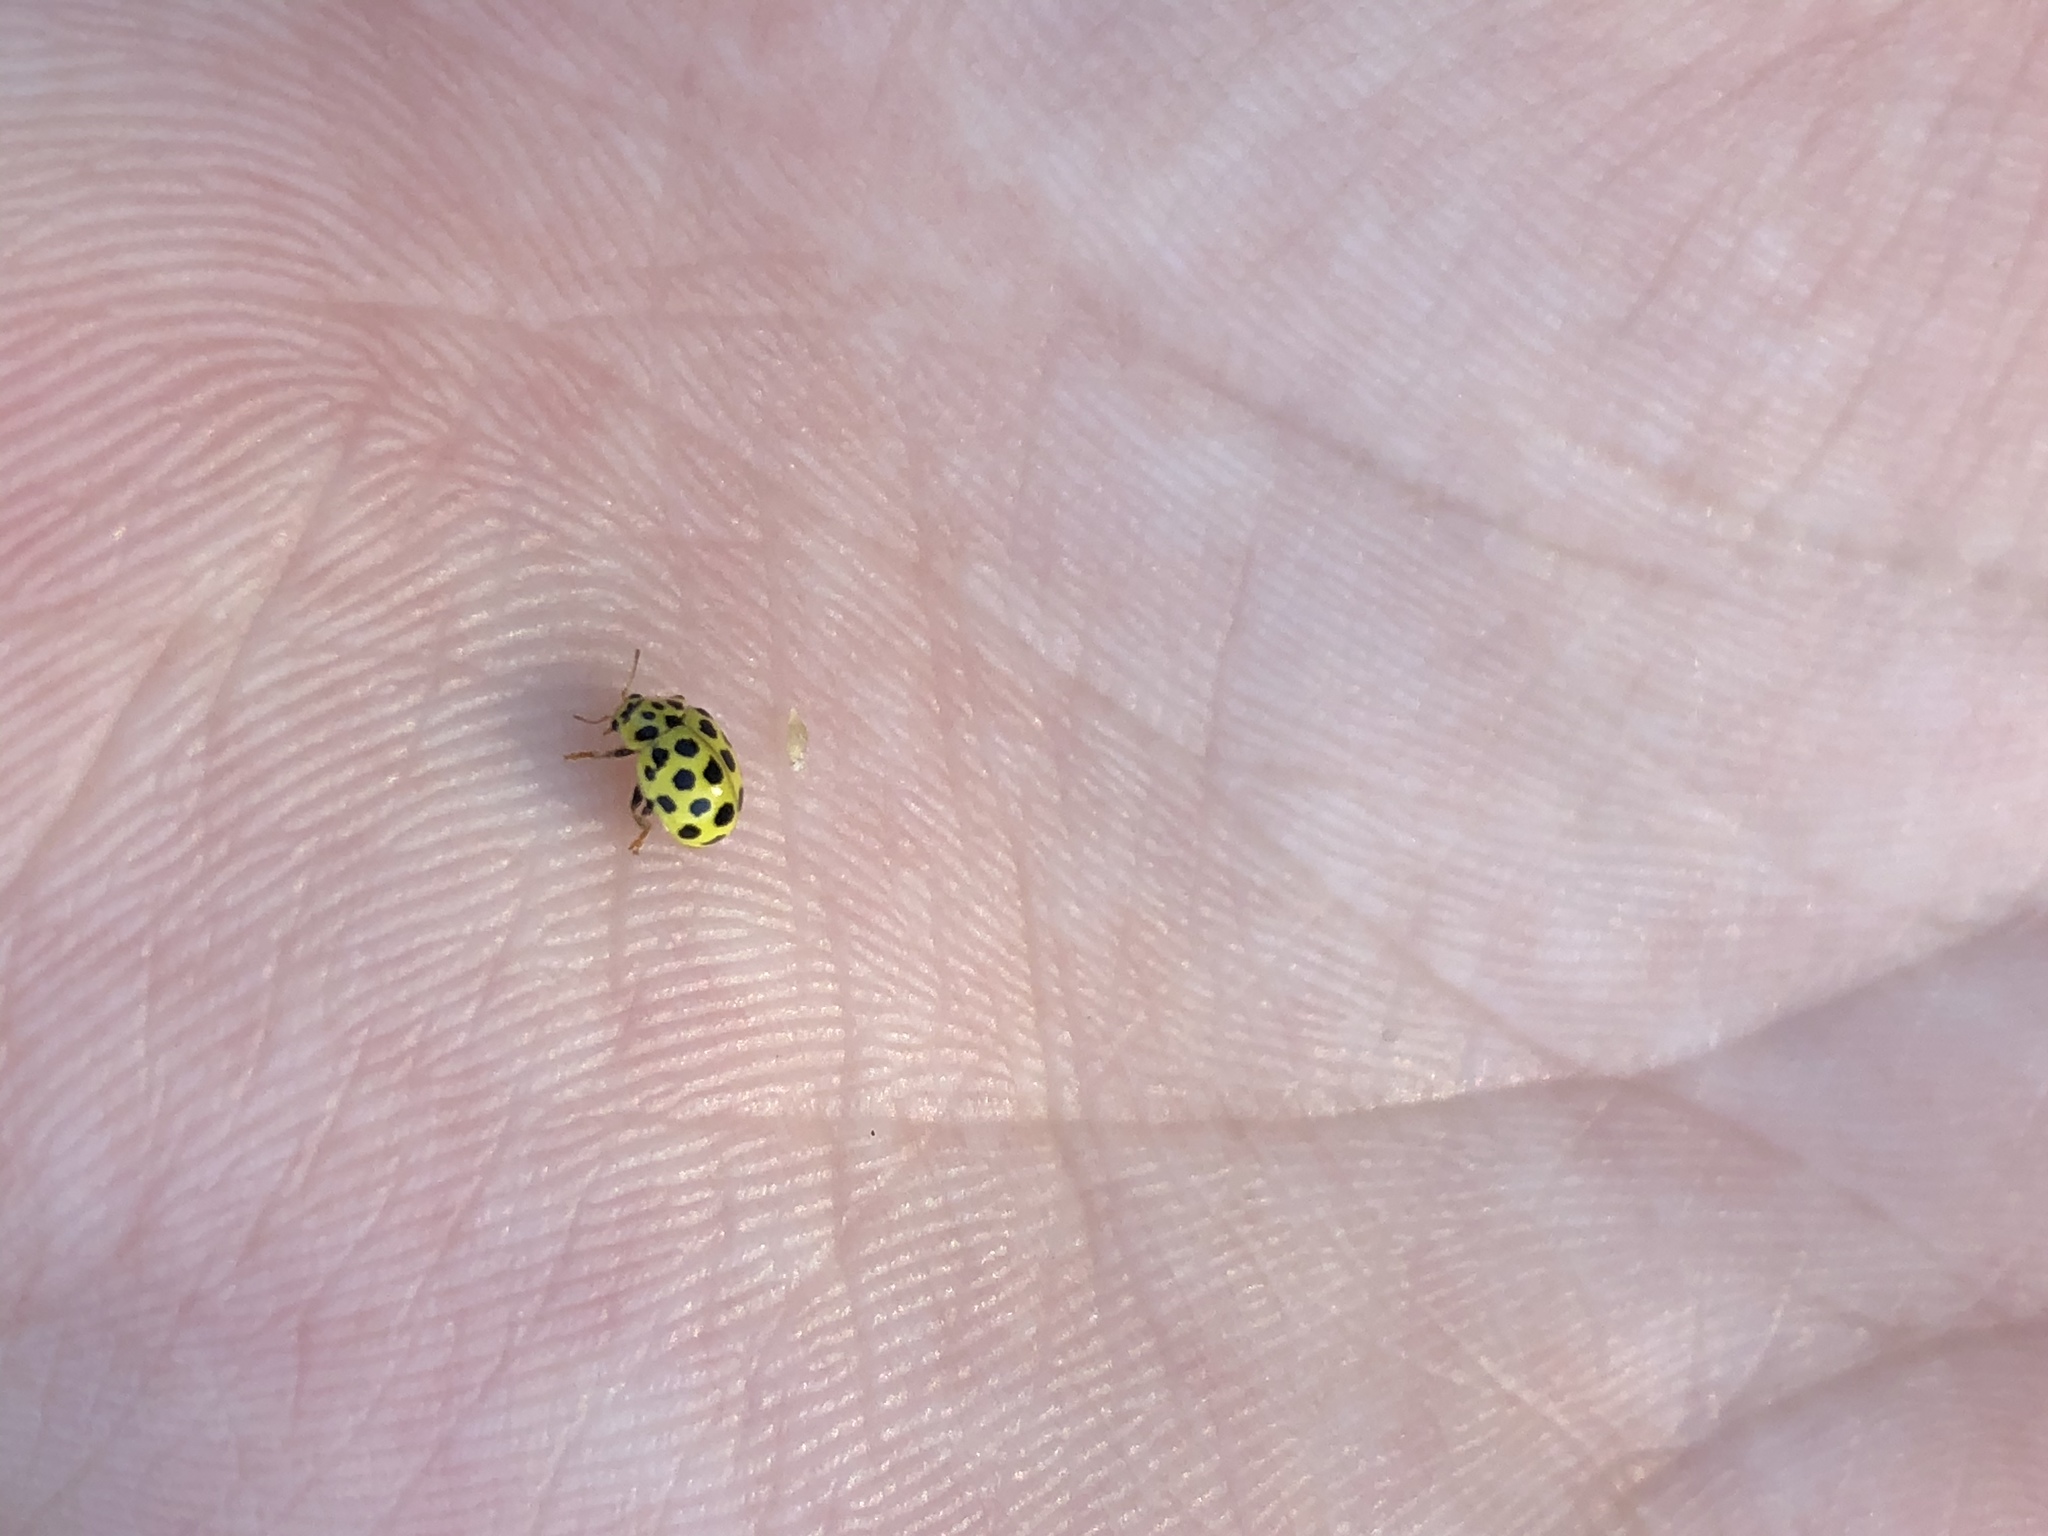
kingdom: Animalia
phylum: Arthropoda
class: Insecta
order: Coleoptera
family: Coccinellidae
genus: Psyllobora
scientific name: Psyllobora vigintiduopunctata
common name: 22-spot ladybird
